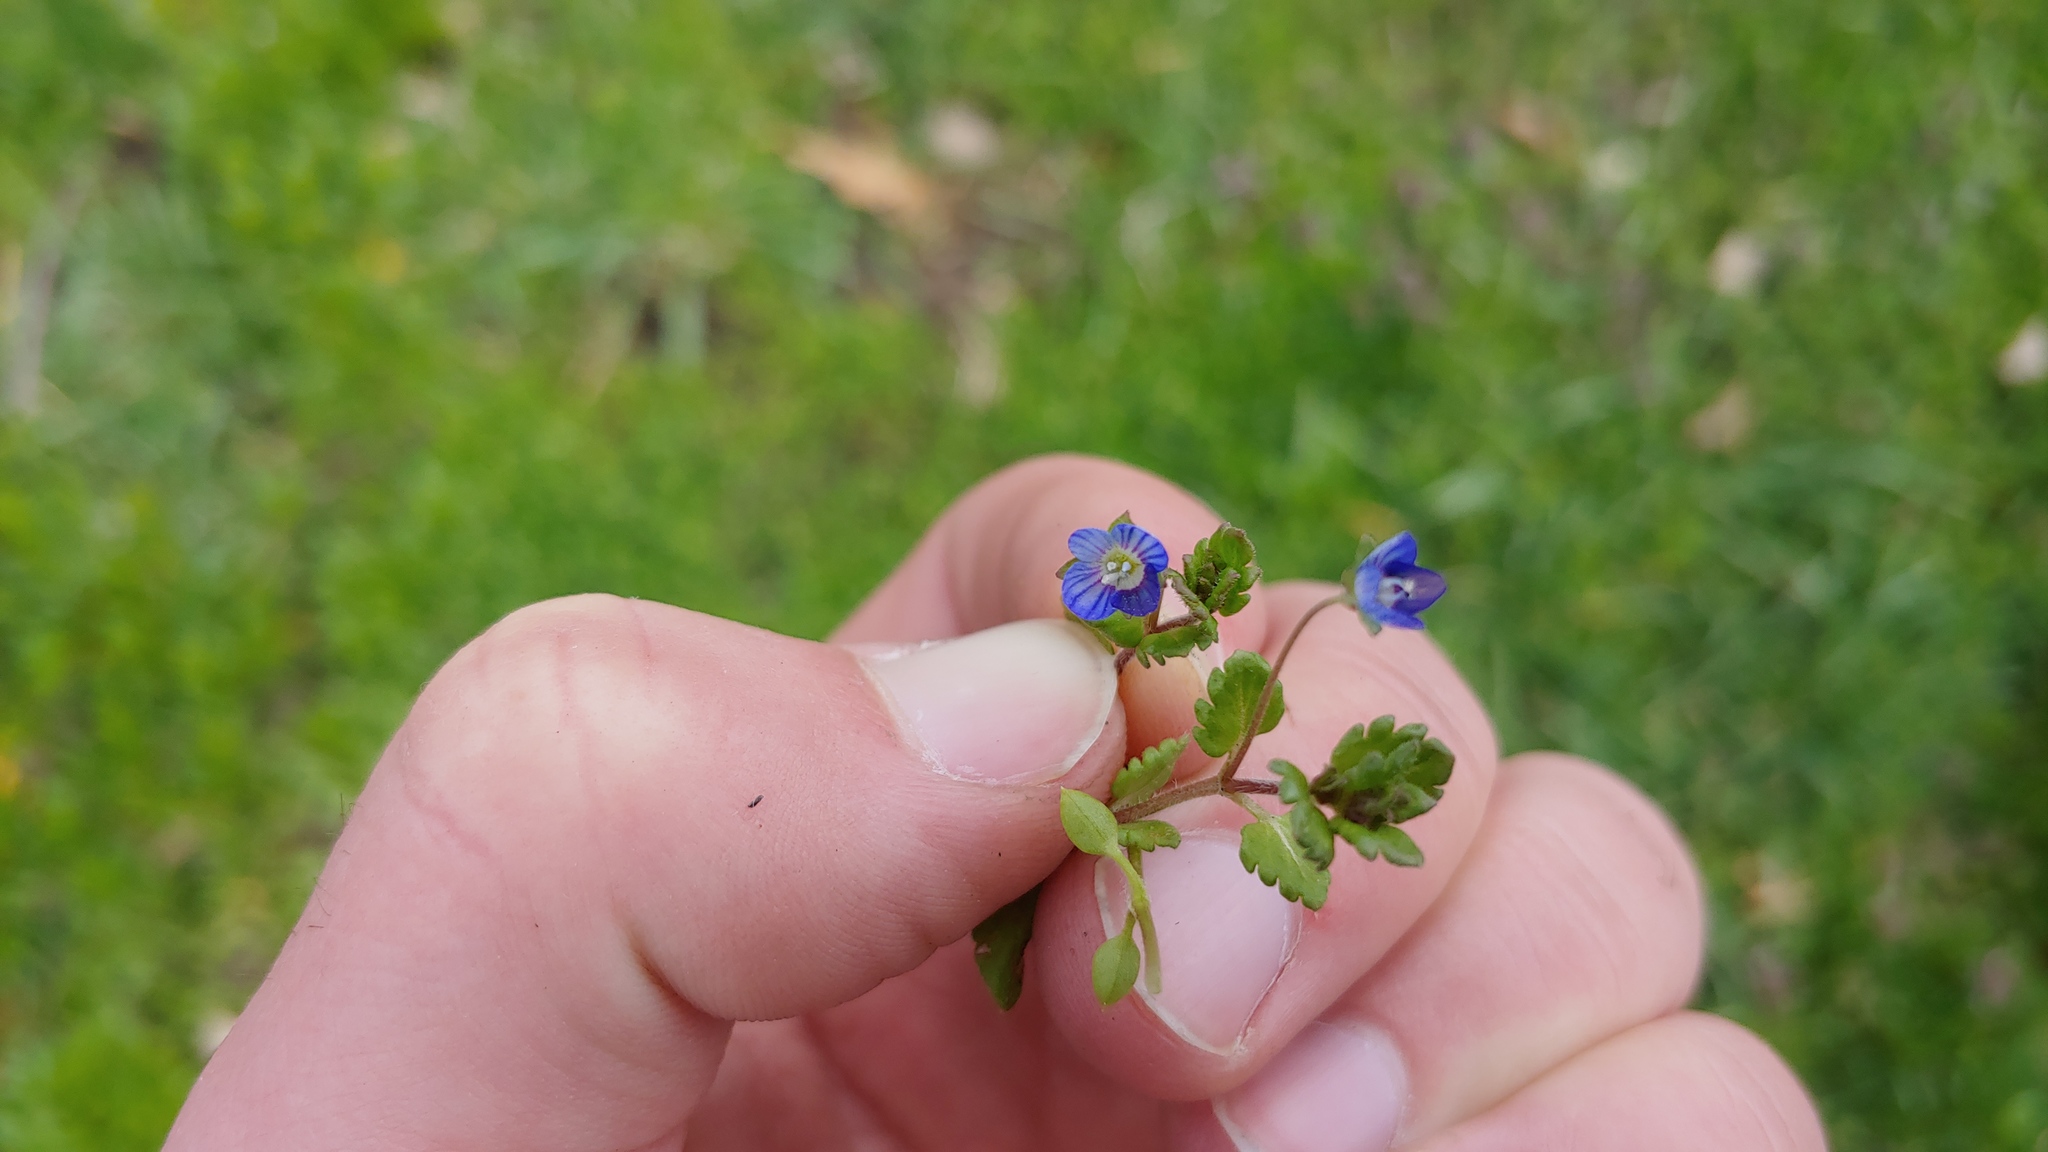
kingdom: Plantae
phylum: Tracheophyta
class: Magnoliopsida
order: Lamiales
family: Plantaginaceae
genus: Veronica
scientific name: Veronica polita
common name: Grey field-speedwell
